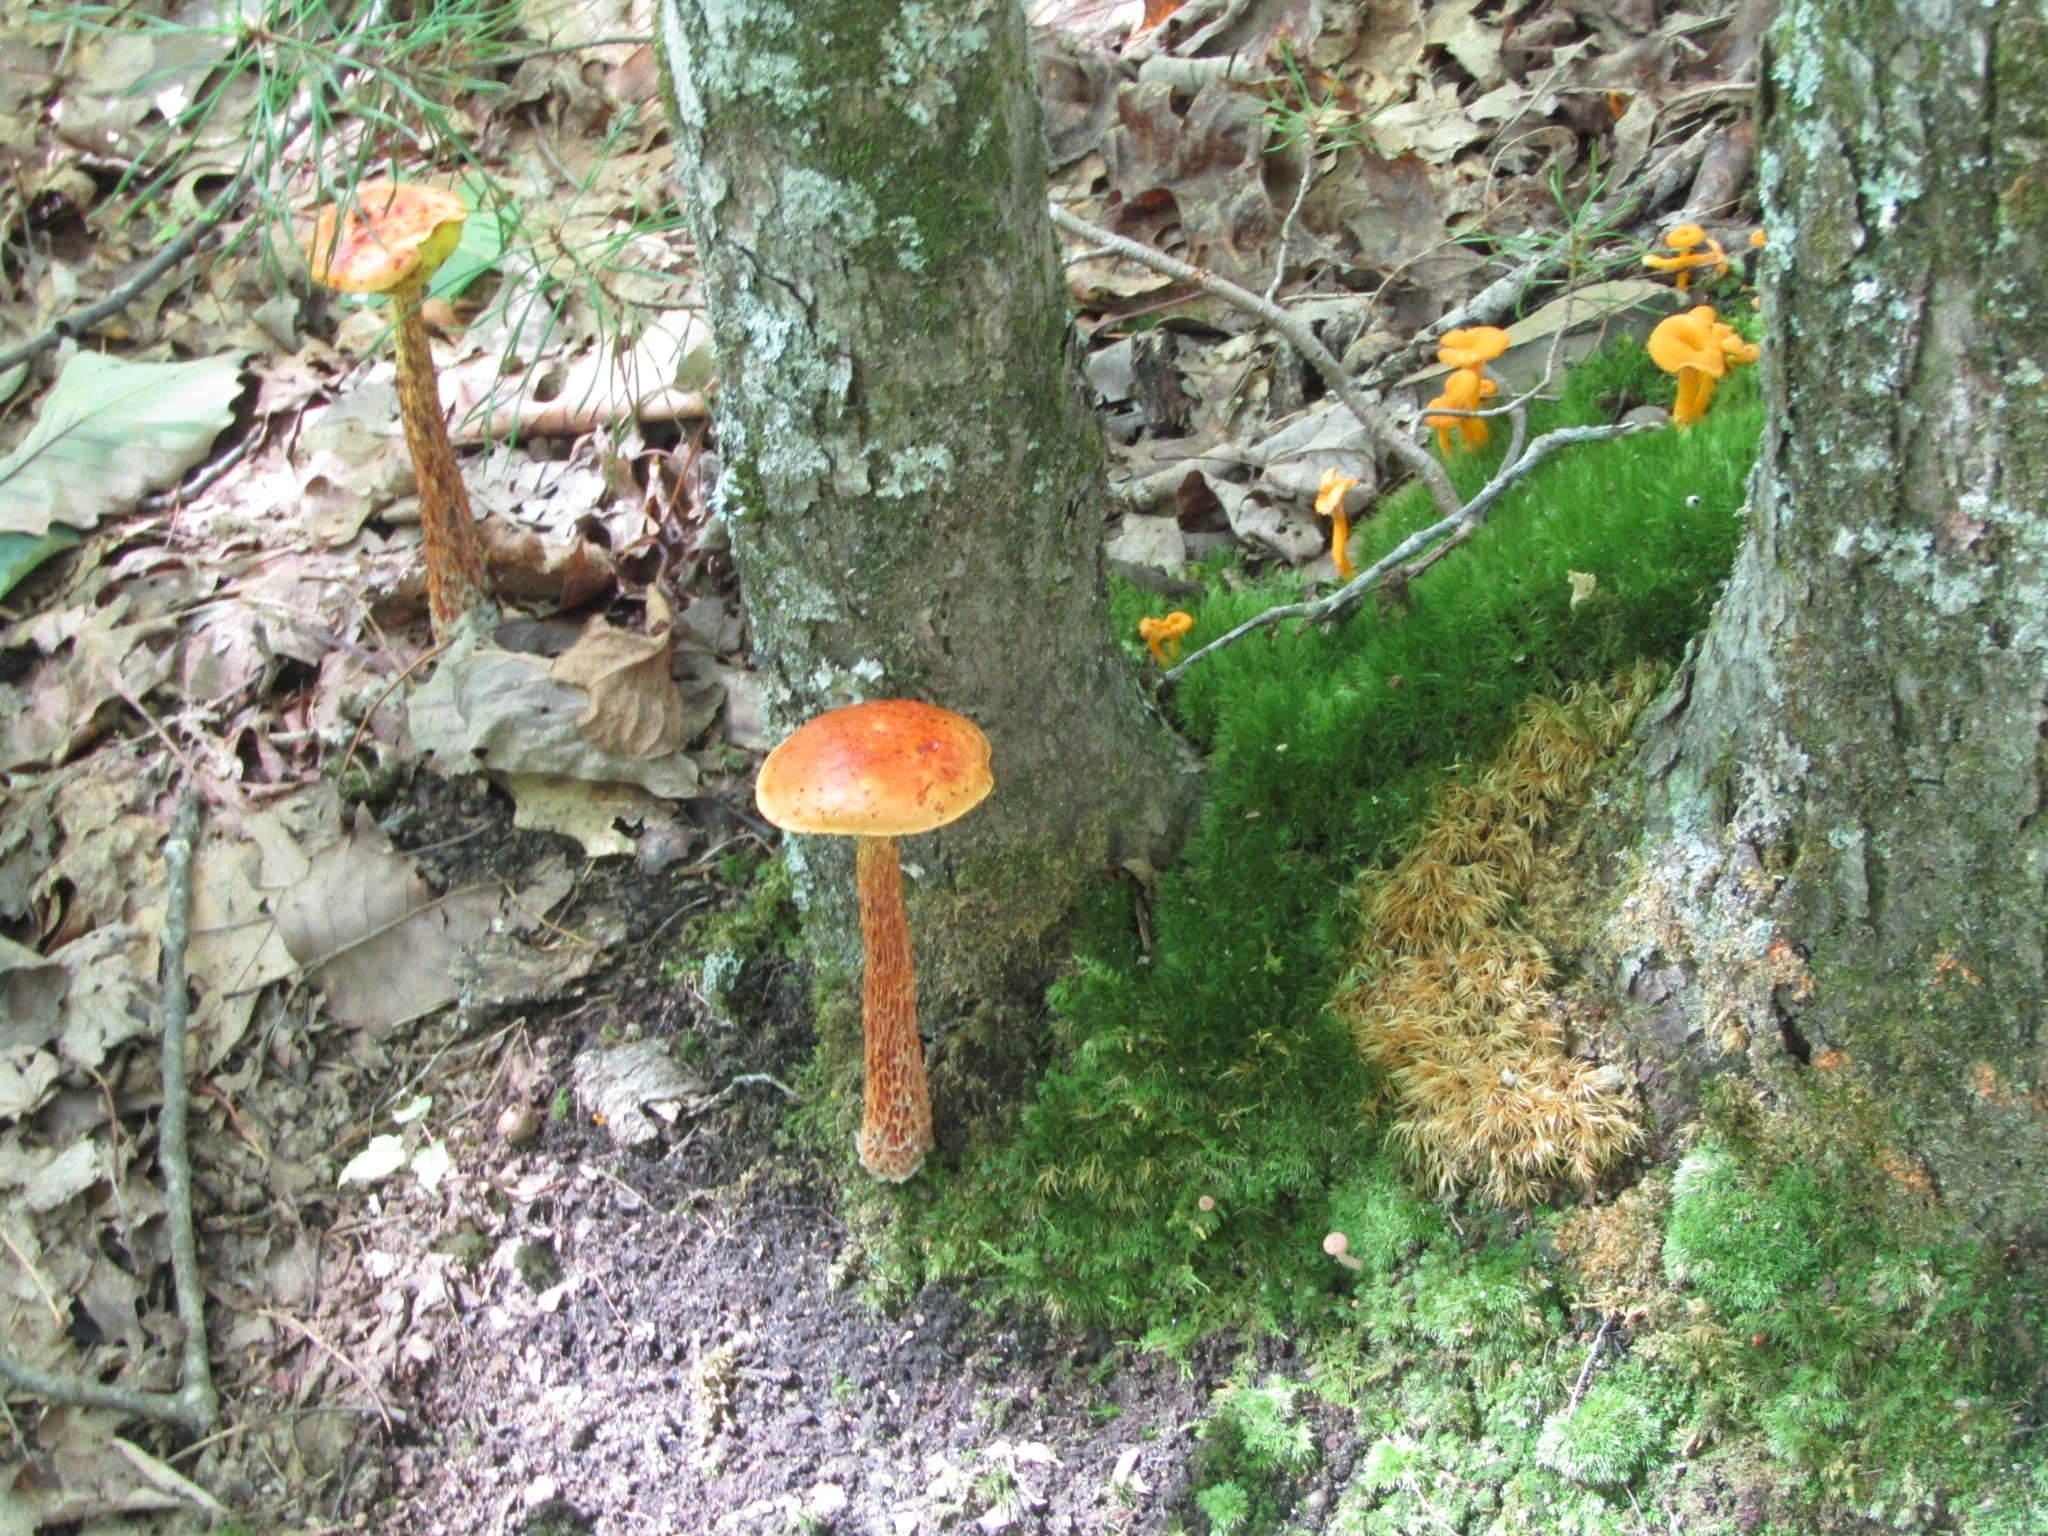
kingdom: Fungi
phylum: Basidiomycota
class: Agaricomycetes
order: Boletales
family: Boletaceae
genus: Aureoboletus
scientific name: Aureoboletus betula
